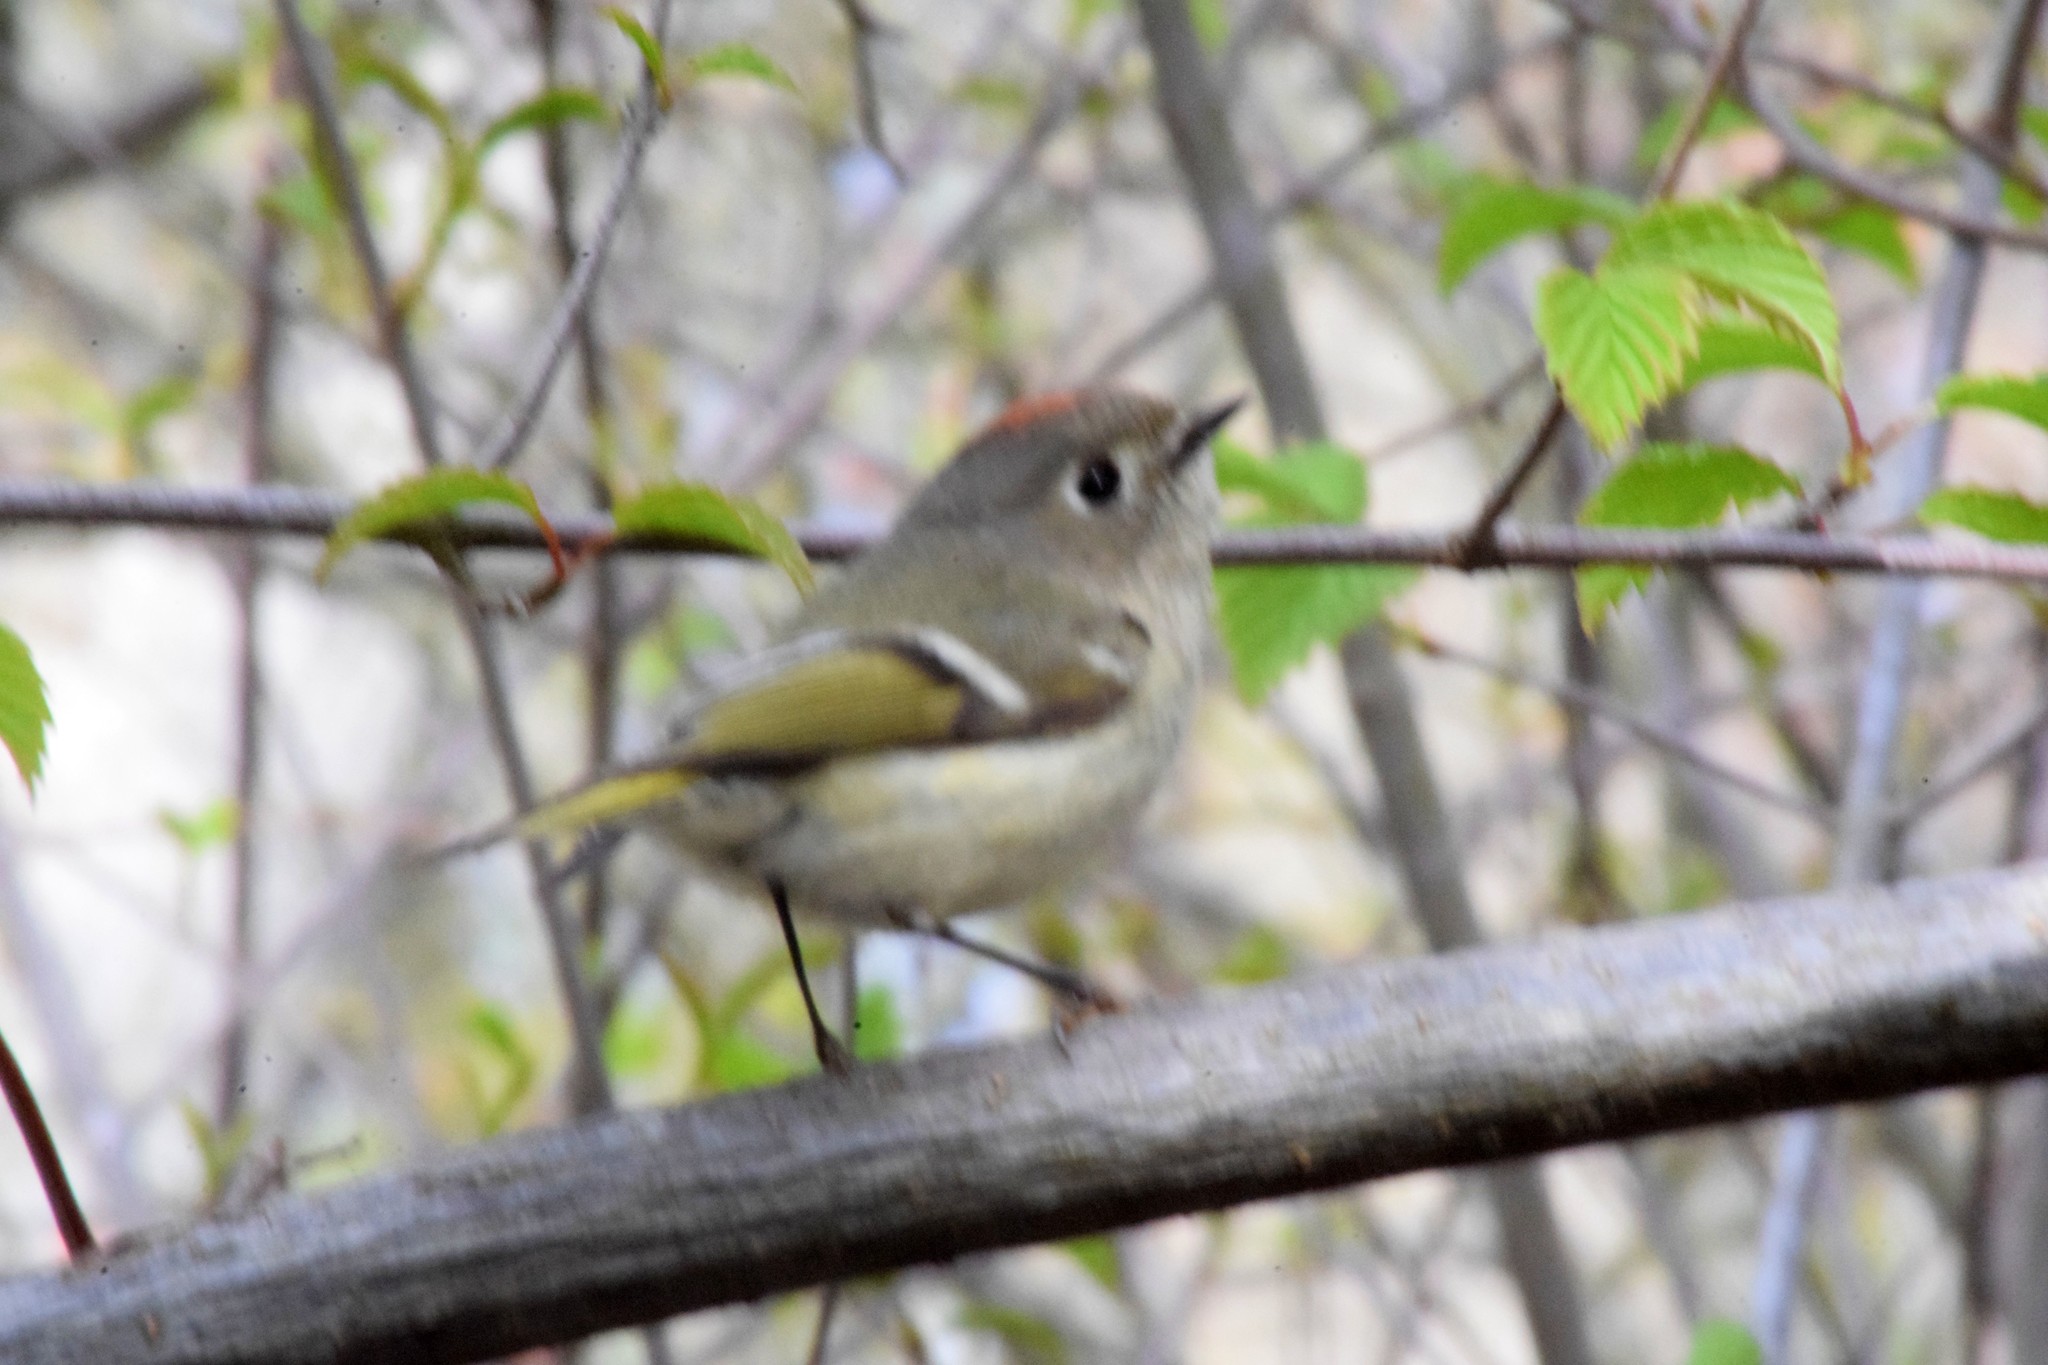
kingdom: Animalia
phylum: Chordata
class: Aves
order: Passeriformes
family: Regulidae
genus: Regulus
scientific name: Regulus calendula
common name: Ruby-crowned kinglet
